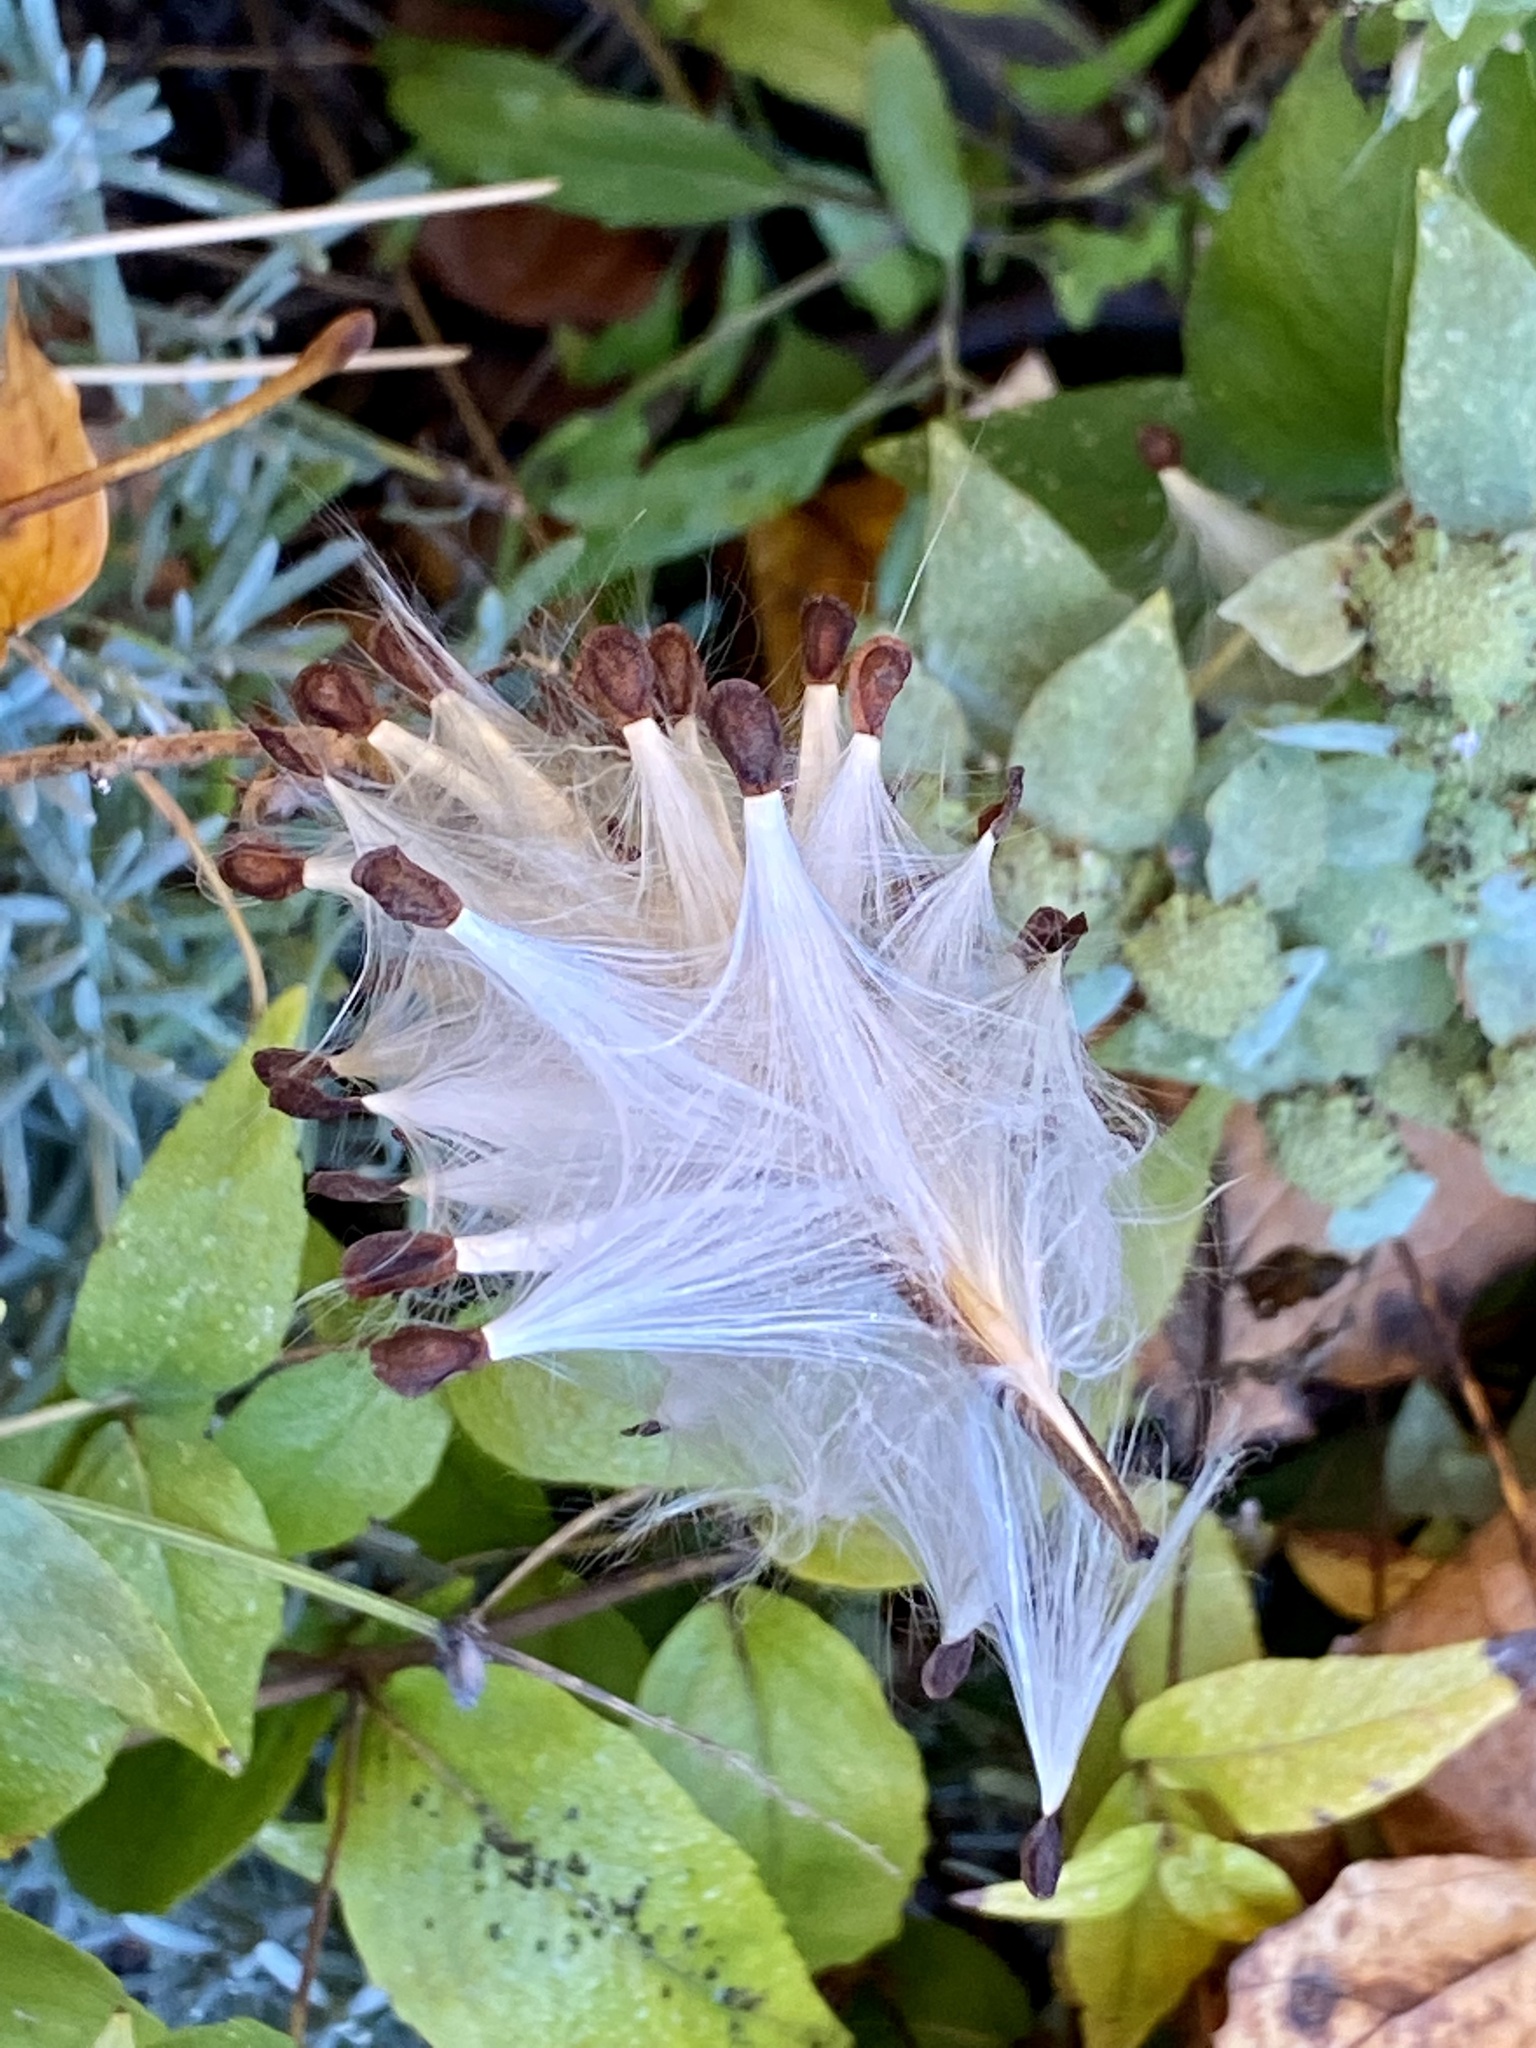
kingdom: Plantae
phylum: Tracheophyta
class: Magnoliopsida
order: Gentianales
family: Apocynaceae
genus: Asclepias
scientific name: Asclepias tuberosa
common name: Butterfly milkweed
